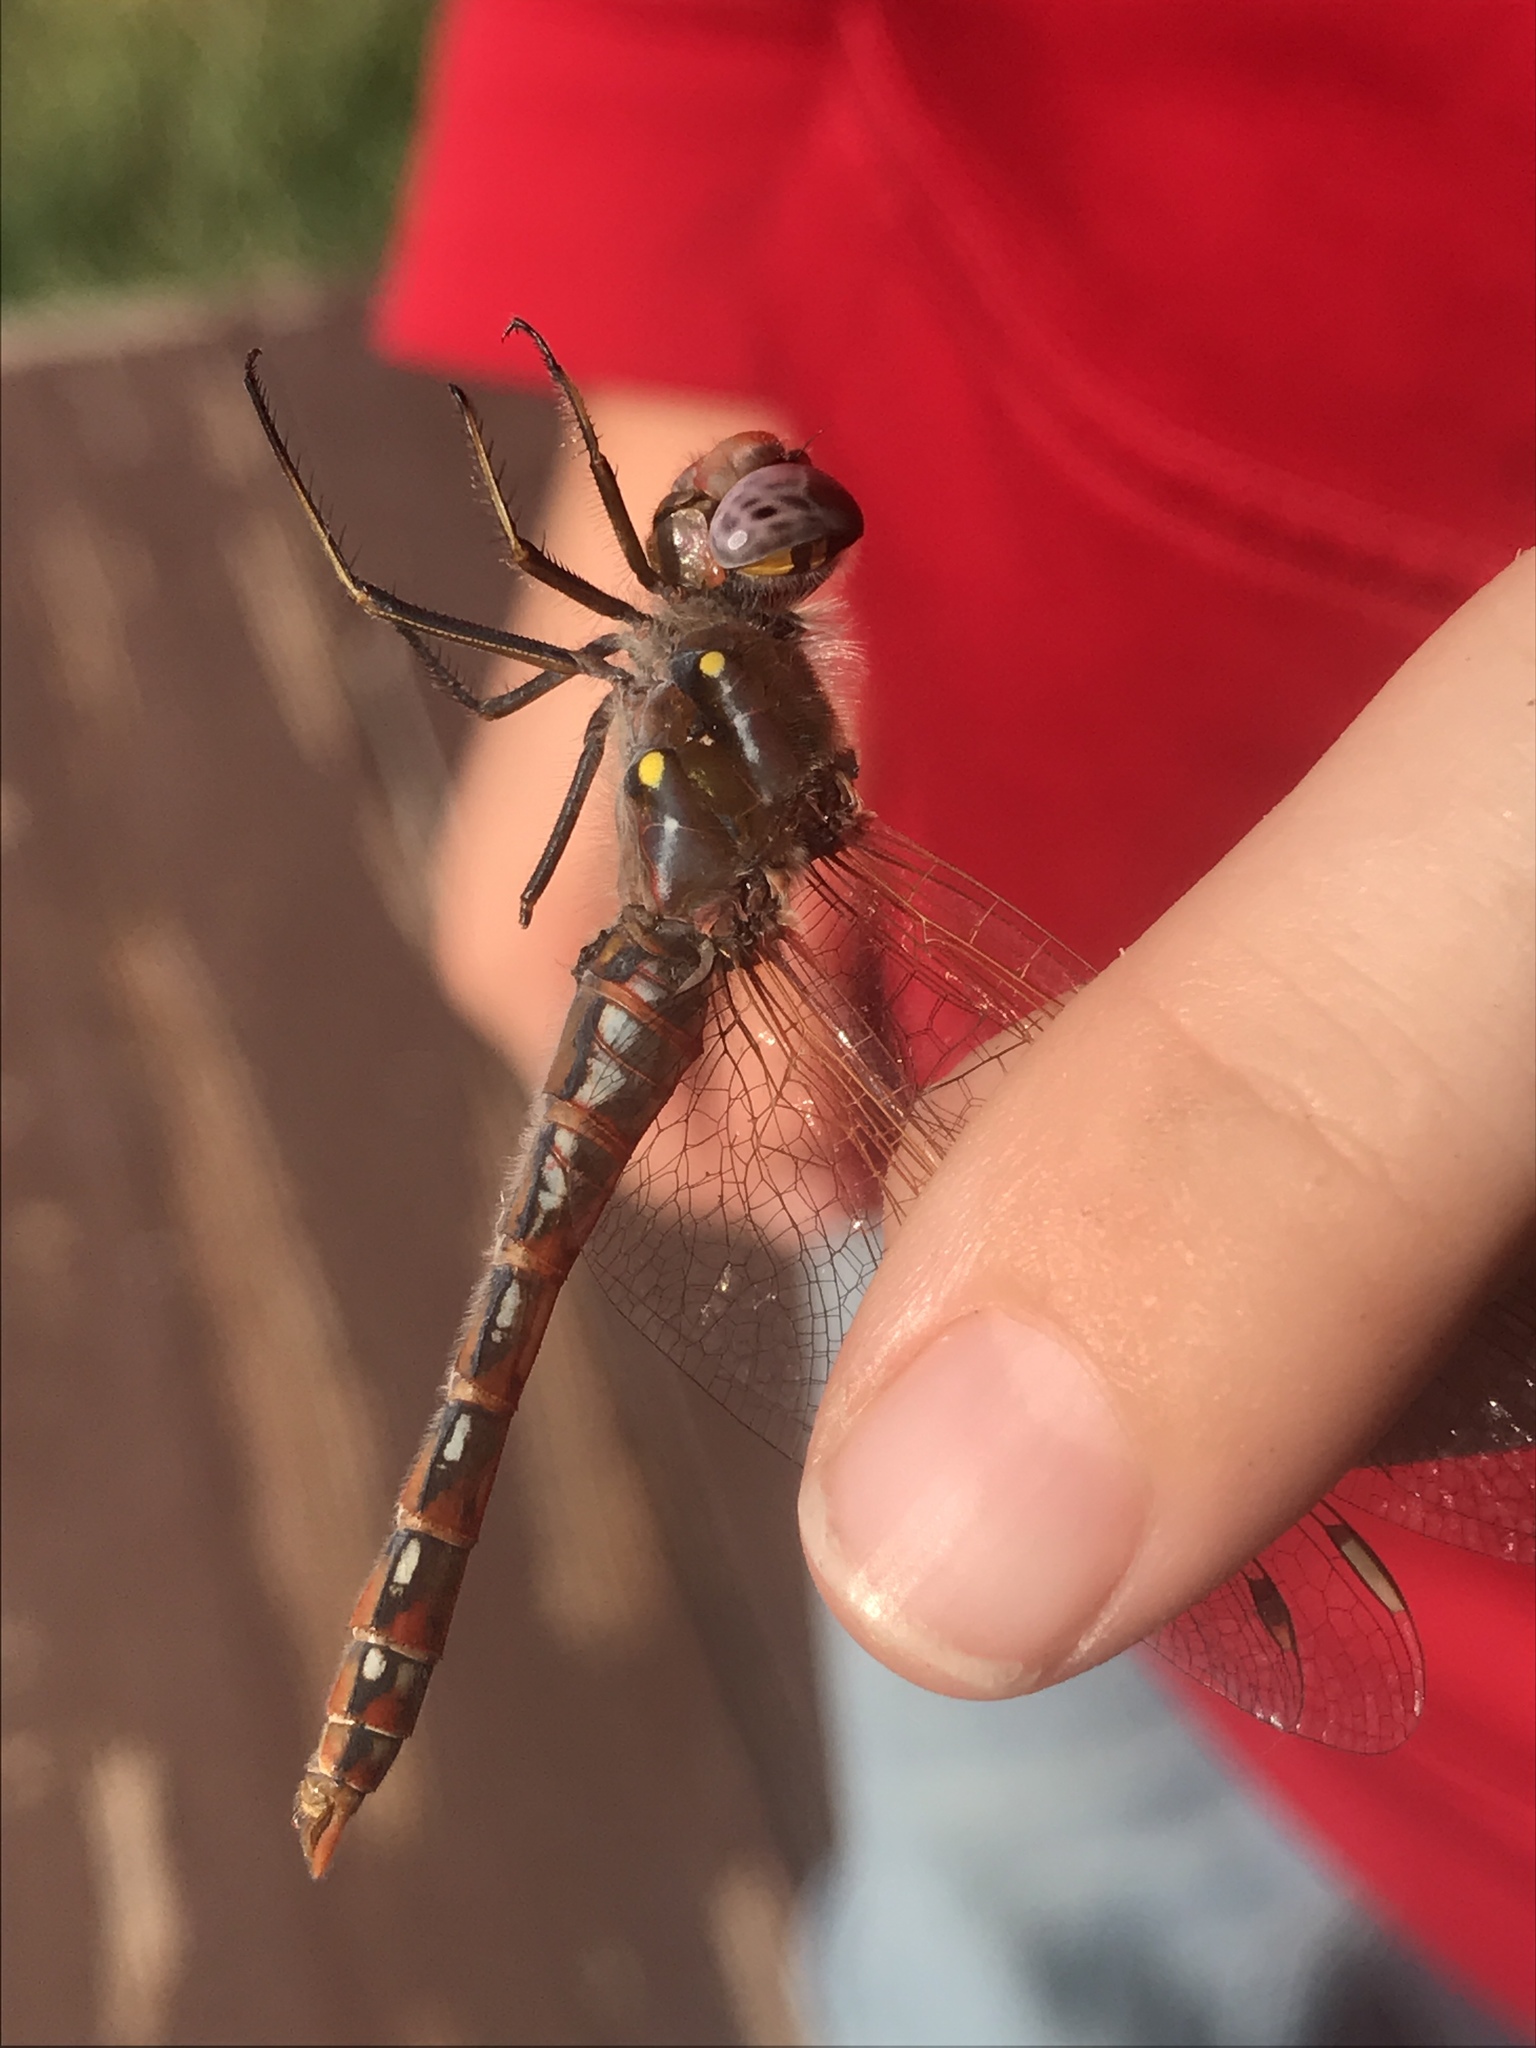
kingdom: Animalia
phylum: Arthropoda
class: Insecta
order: Odonata
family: Libellulidae
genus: Sympetrum
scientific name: Sympetrum corruptum
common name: Variegated meadowhawk
